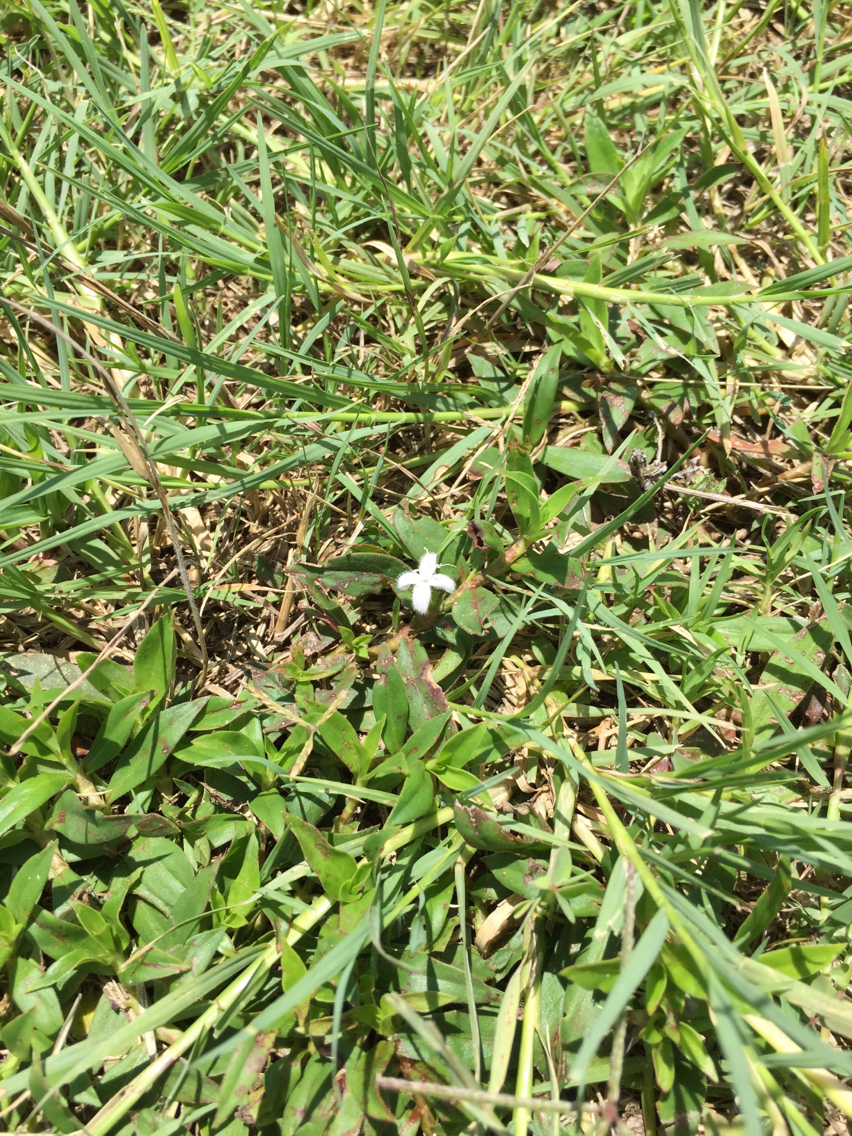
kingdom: Plantae
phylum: Tracheophyta
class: Magnoliopsida
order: Gentianales
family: Rubiaceae
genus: Diodia
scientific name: Diodia virginiana
